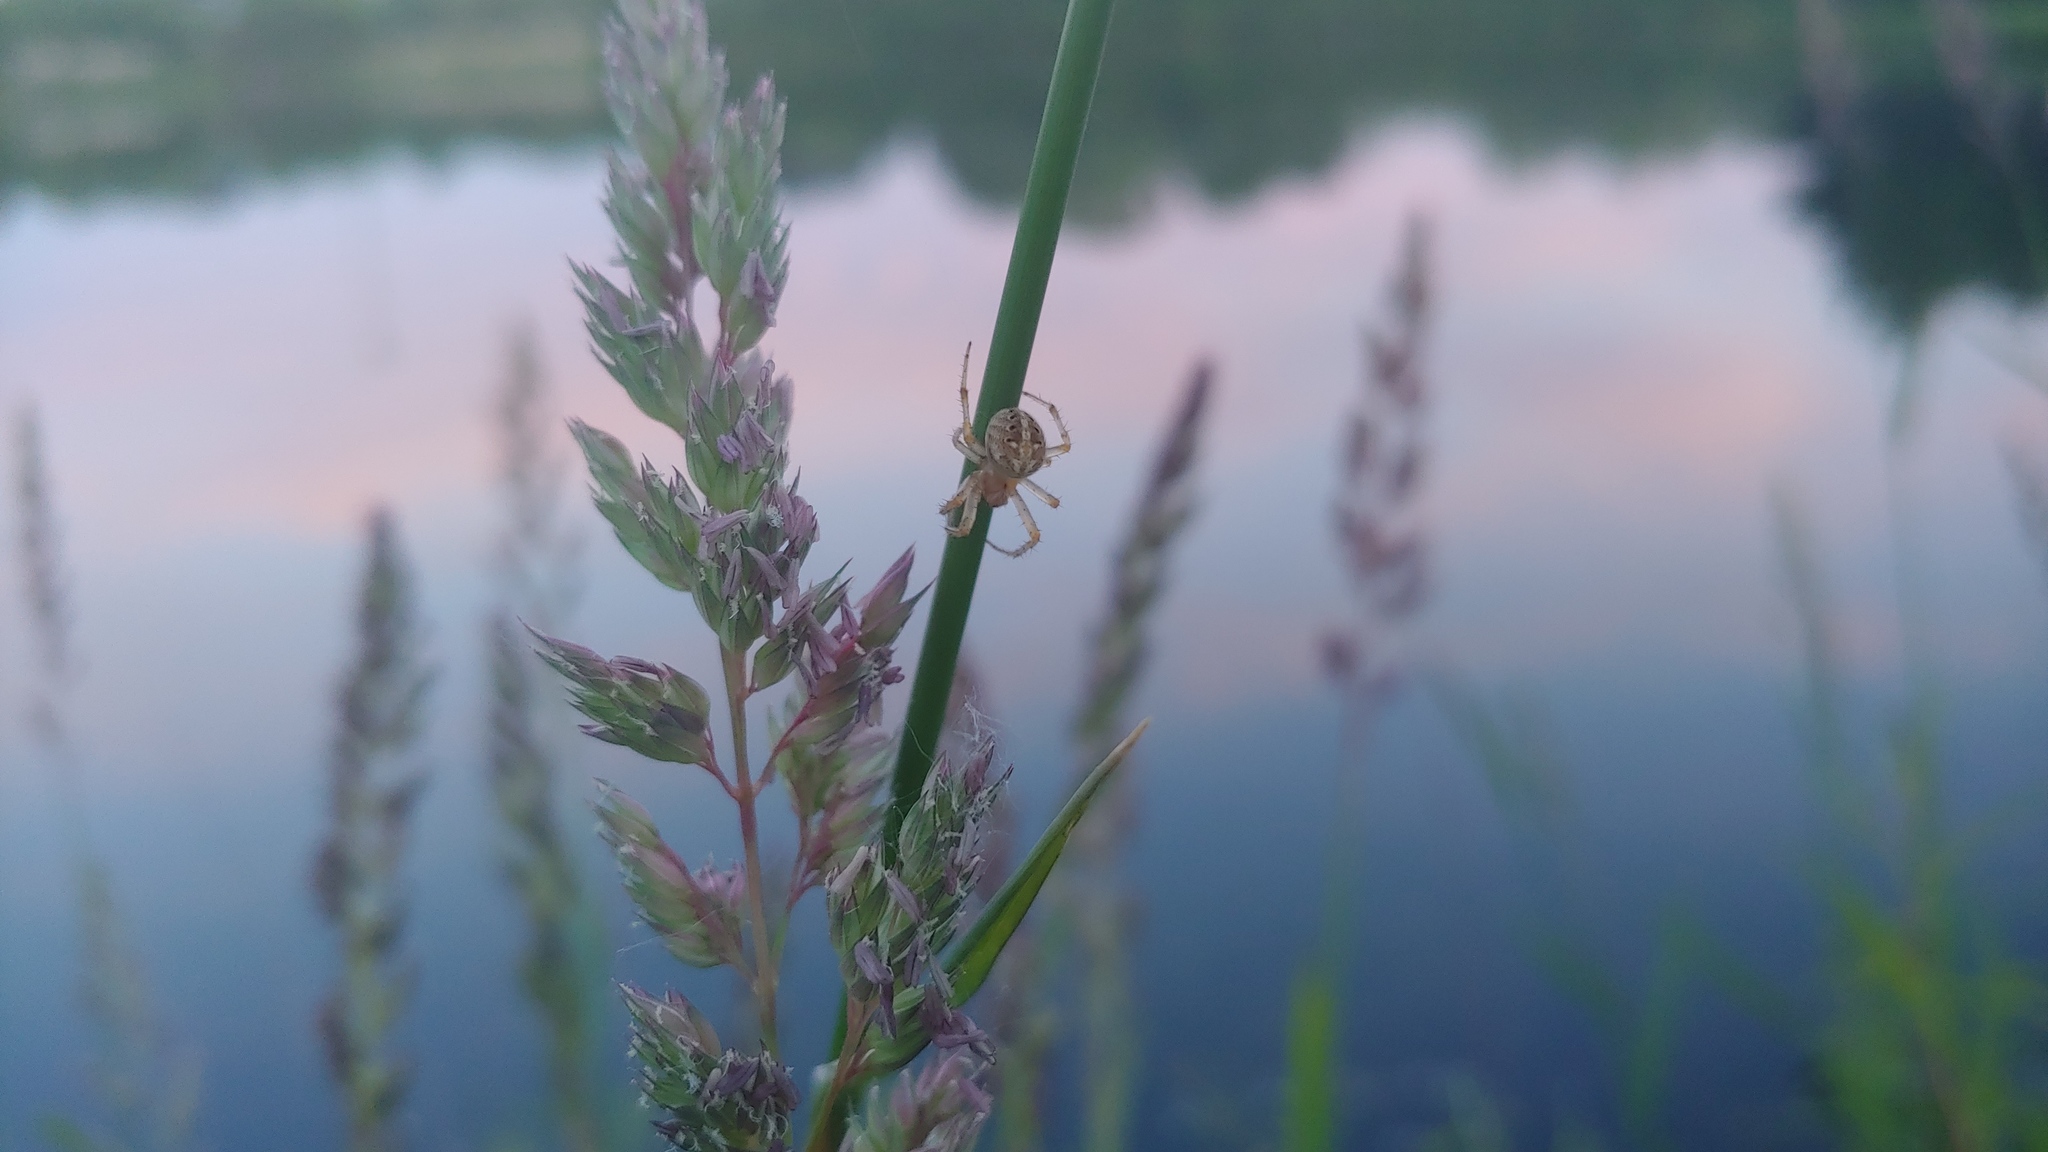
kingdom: Animalia
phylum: Arthropoda
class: Arachnida
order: Araneae
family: Araneidae
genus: Neoscona
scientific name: Neoscona arabesca
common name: Orb weavers
